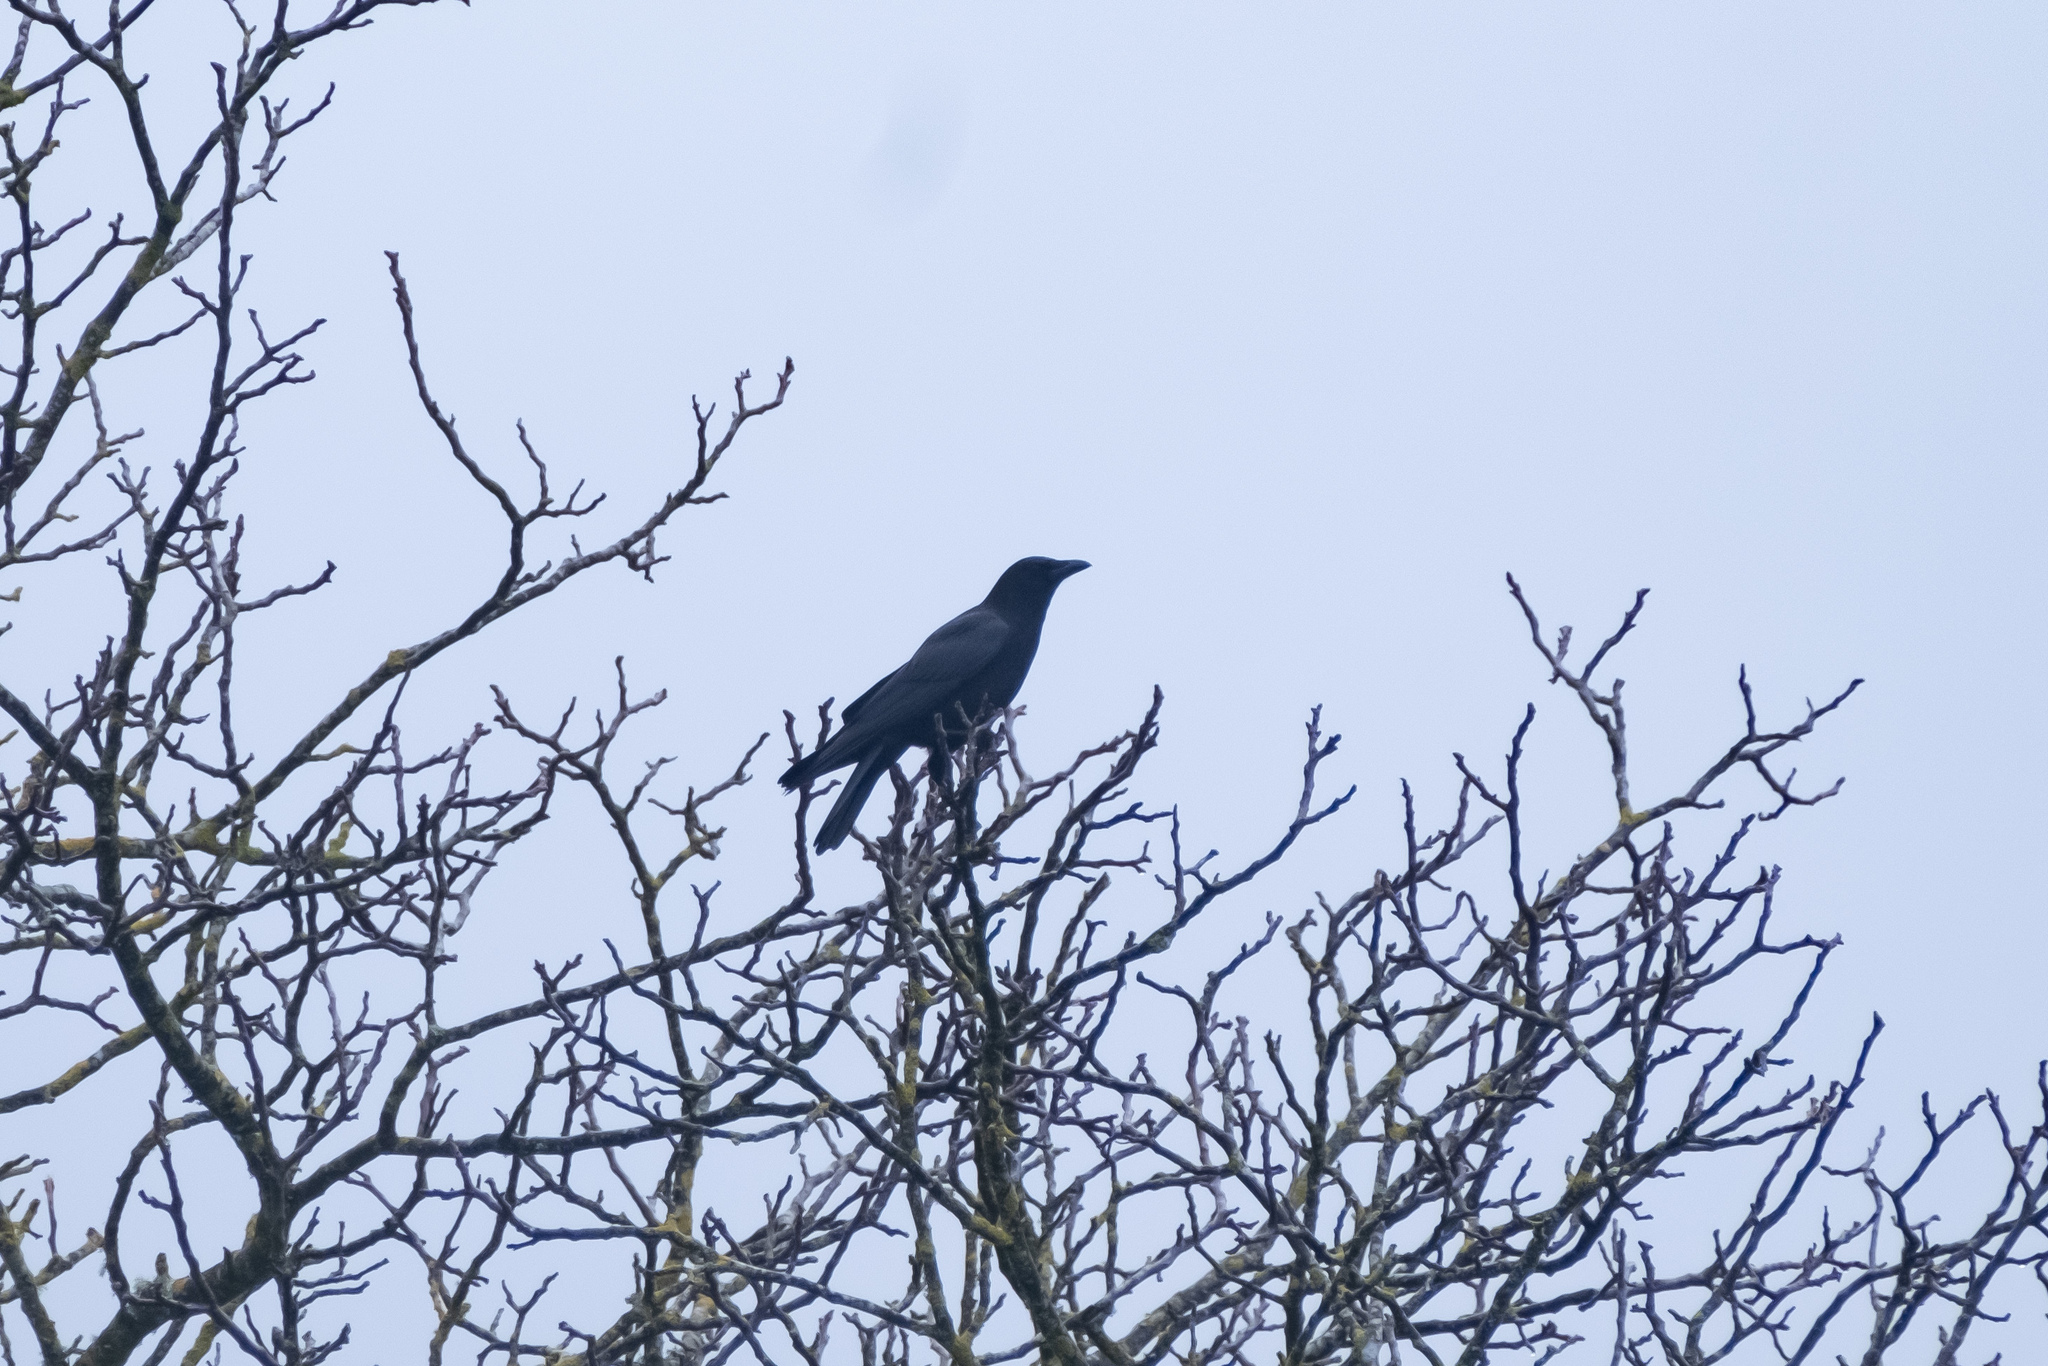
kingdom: Animalia
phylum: Chordata
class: Aves
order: Passeriformes
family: Corvidae
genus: Corvus
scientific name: Corvus corone
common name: Carrion crow
